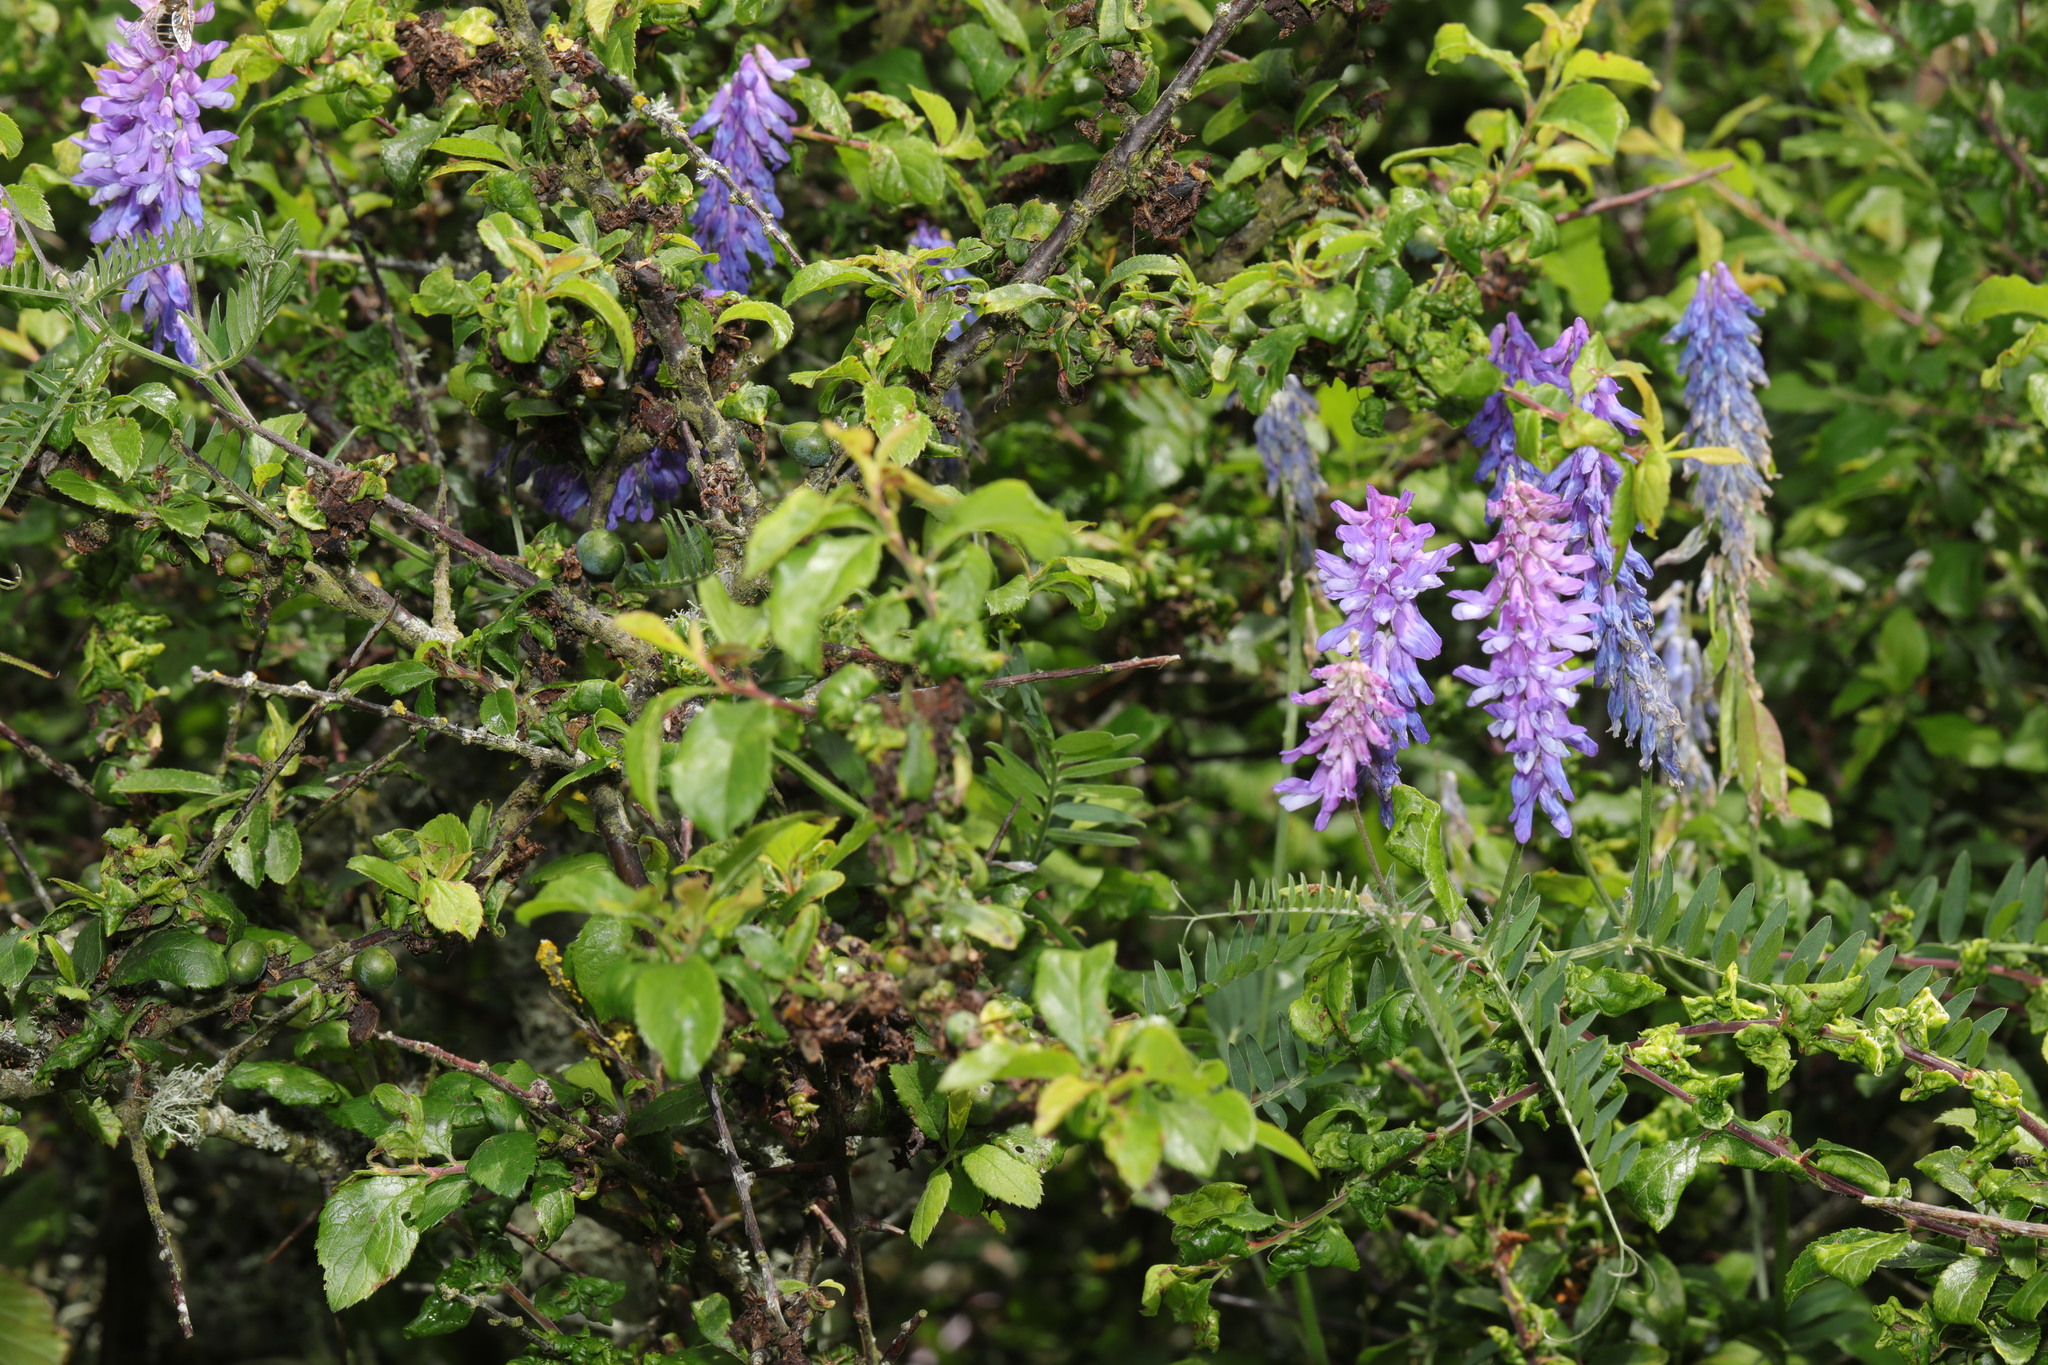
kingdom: Plantae
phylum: Tracheophyta
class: Magnoliopsida
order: Fabales
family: Fabaceae
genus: Vicia
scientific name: Vicia cracca
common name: Bird vetch
